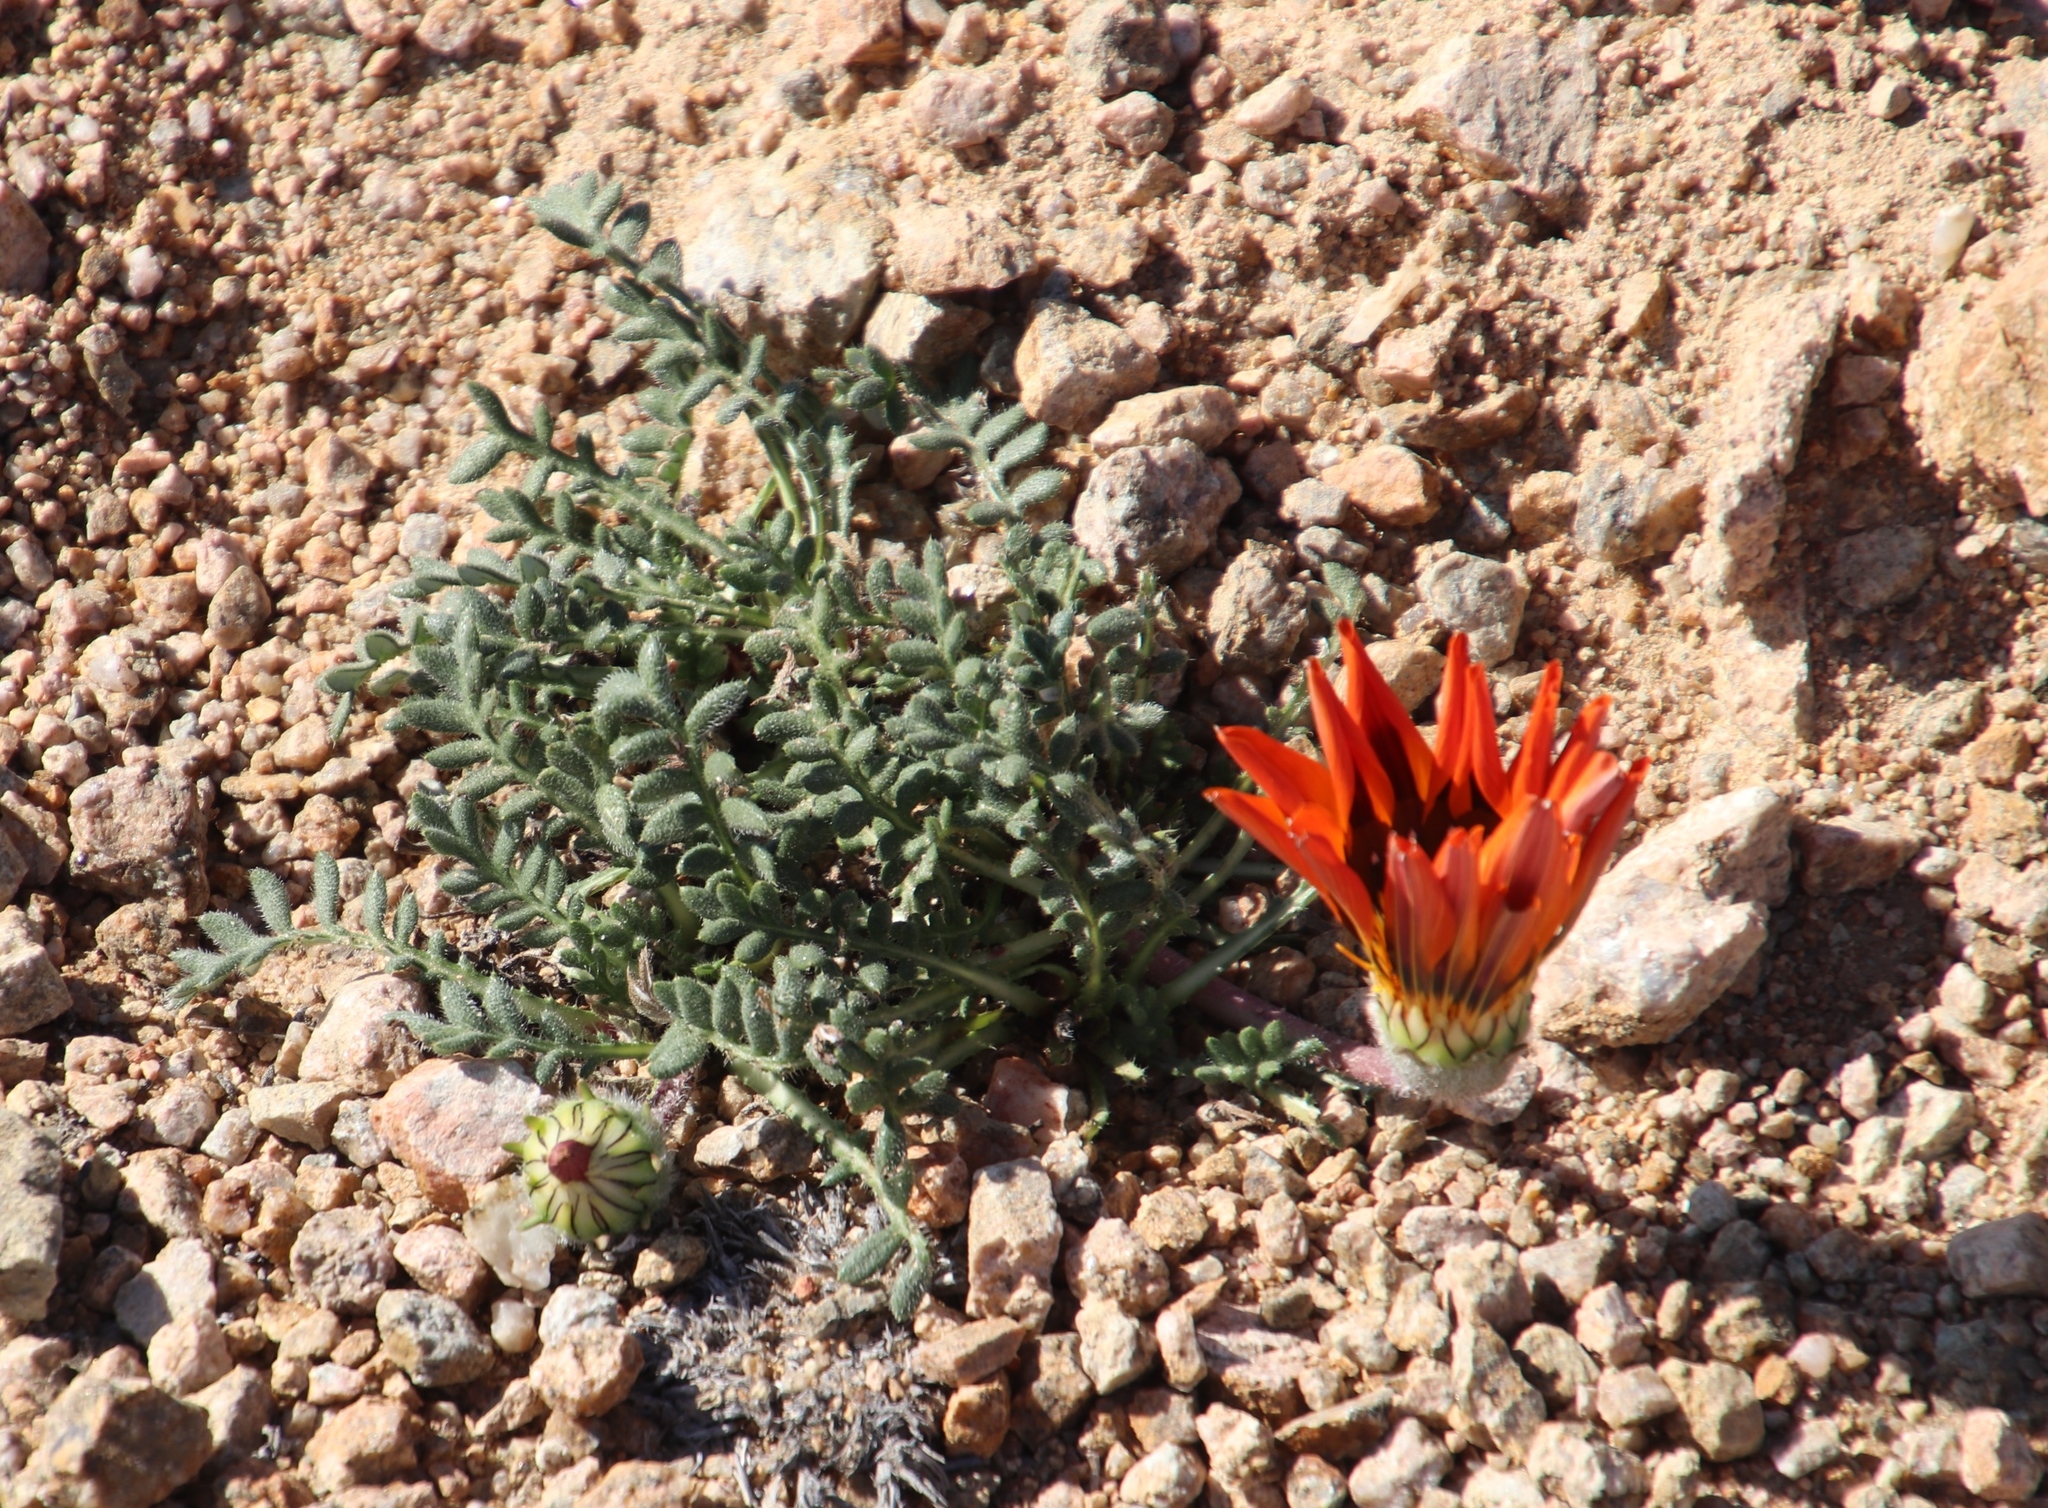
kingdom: Plantae
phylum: Tracheophyta
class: Magnoliopsida
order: Asterales
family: Asteraceae
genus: Gazania
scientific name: Gazania leiopoda
